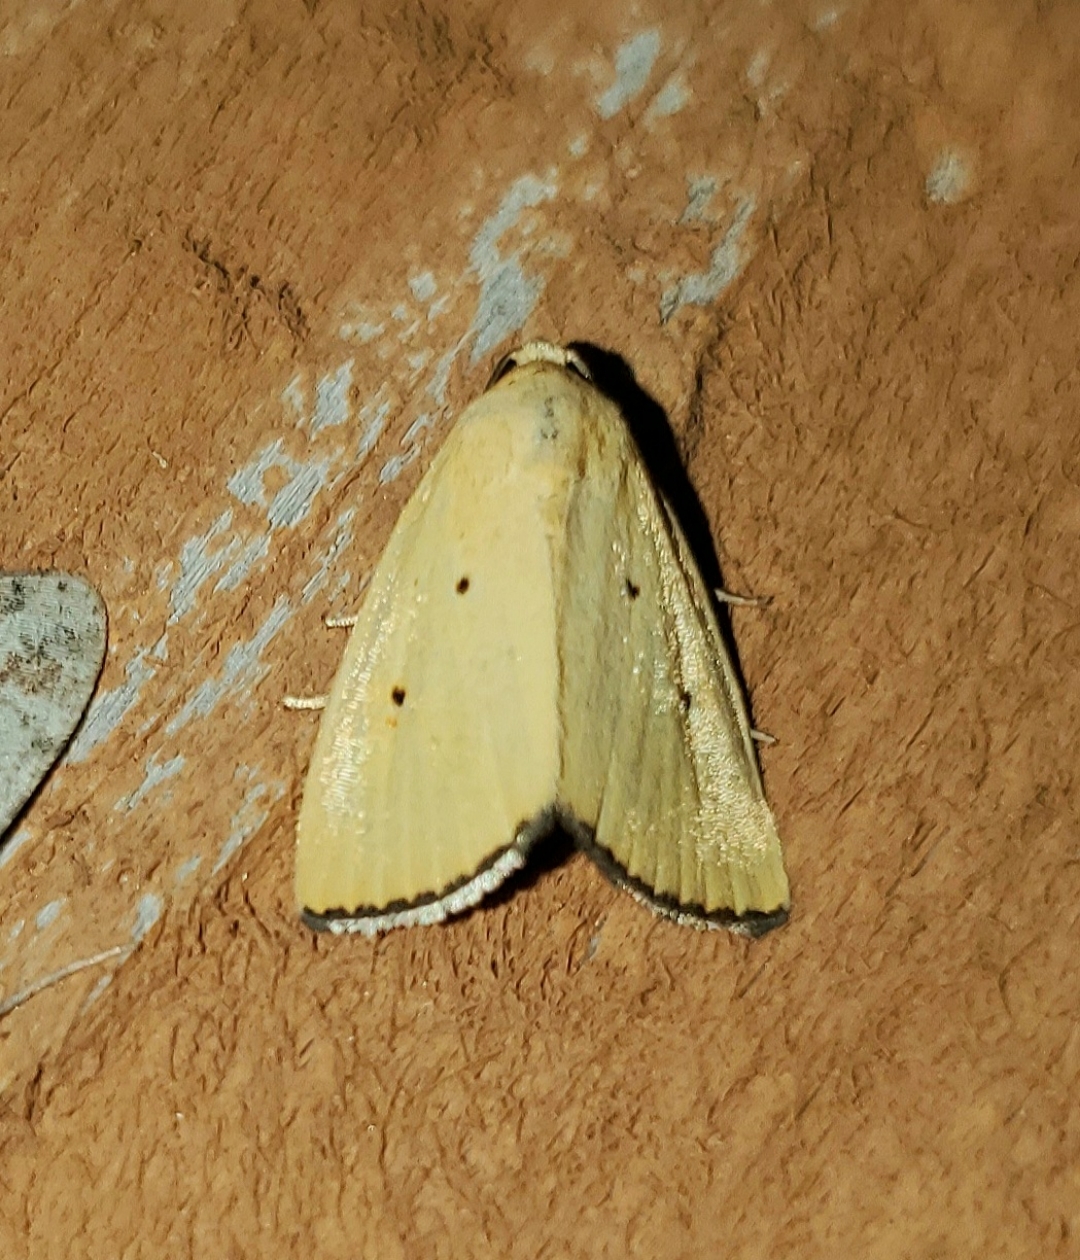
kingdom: Animalia
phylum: Arthropoda
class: Insecta
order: Lepidoptera
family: Noctuidae
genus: Marimatha
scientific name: Marimatha nigrofimbria
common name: Black-bordered lemon moth
